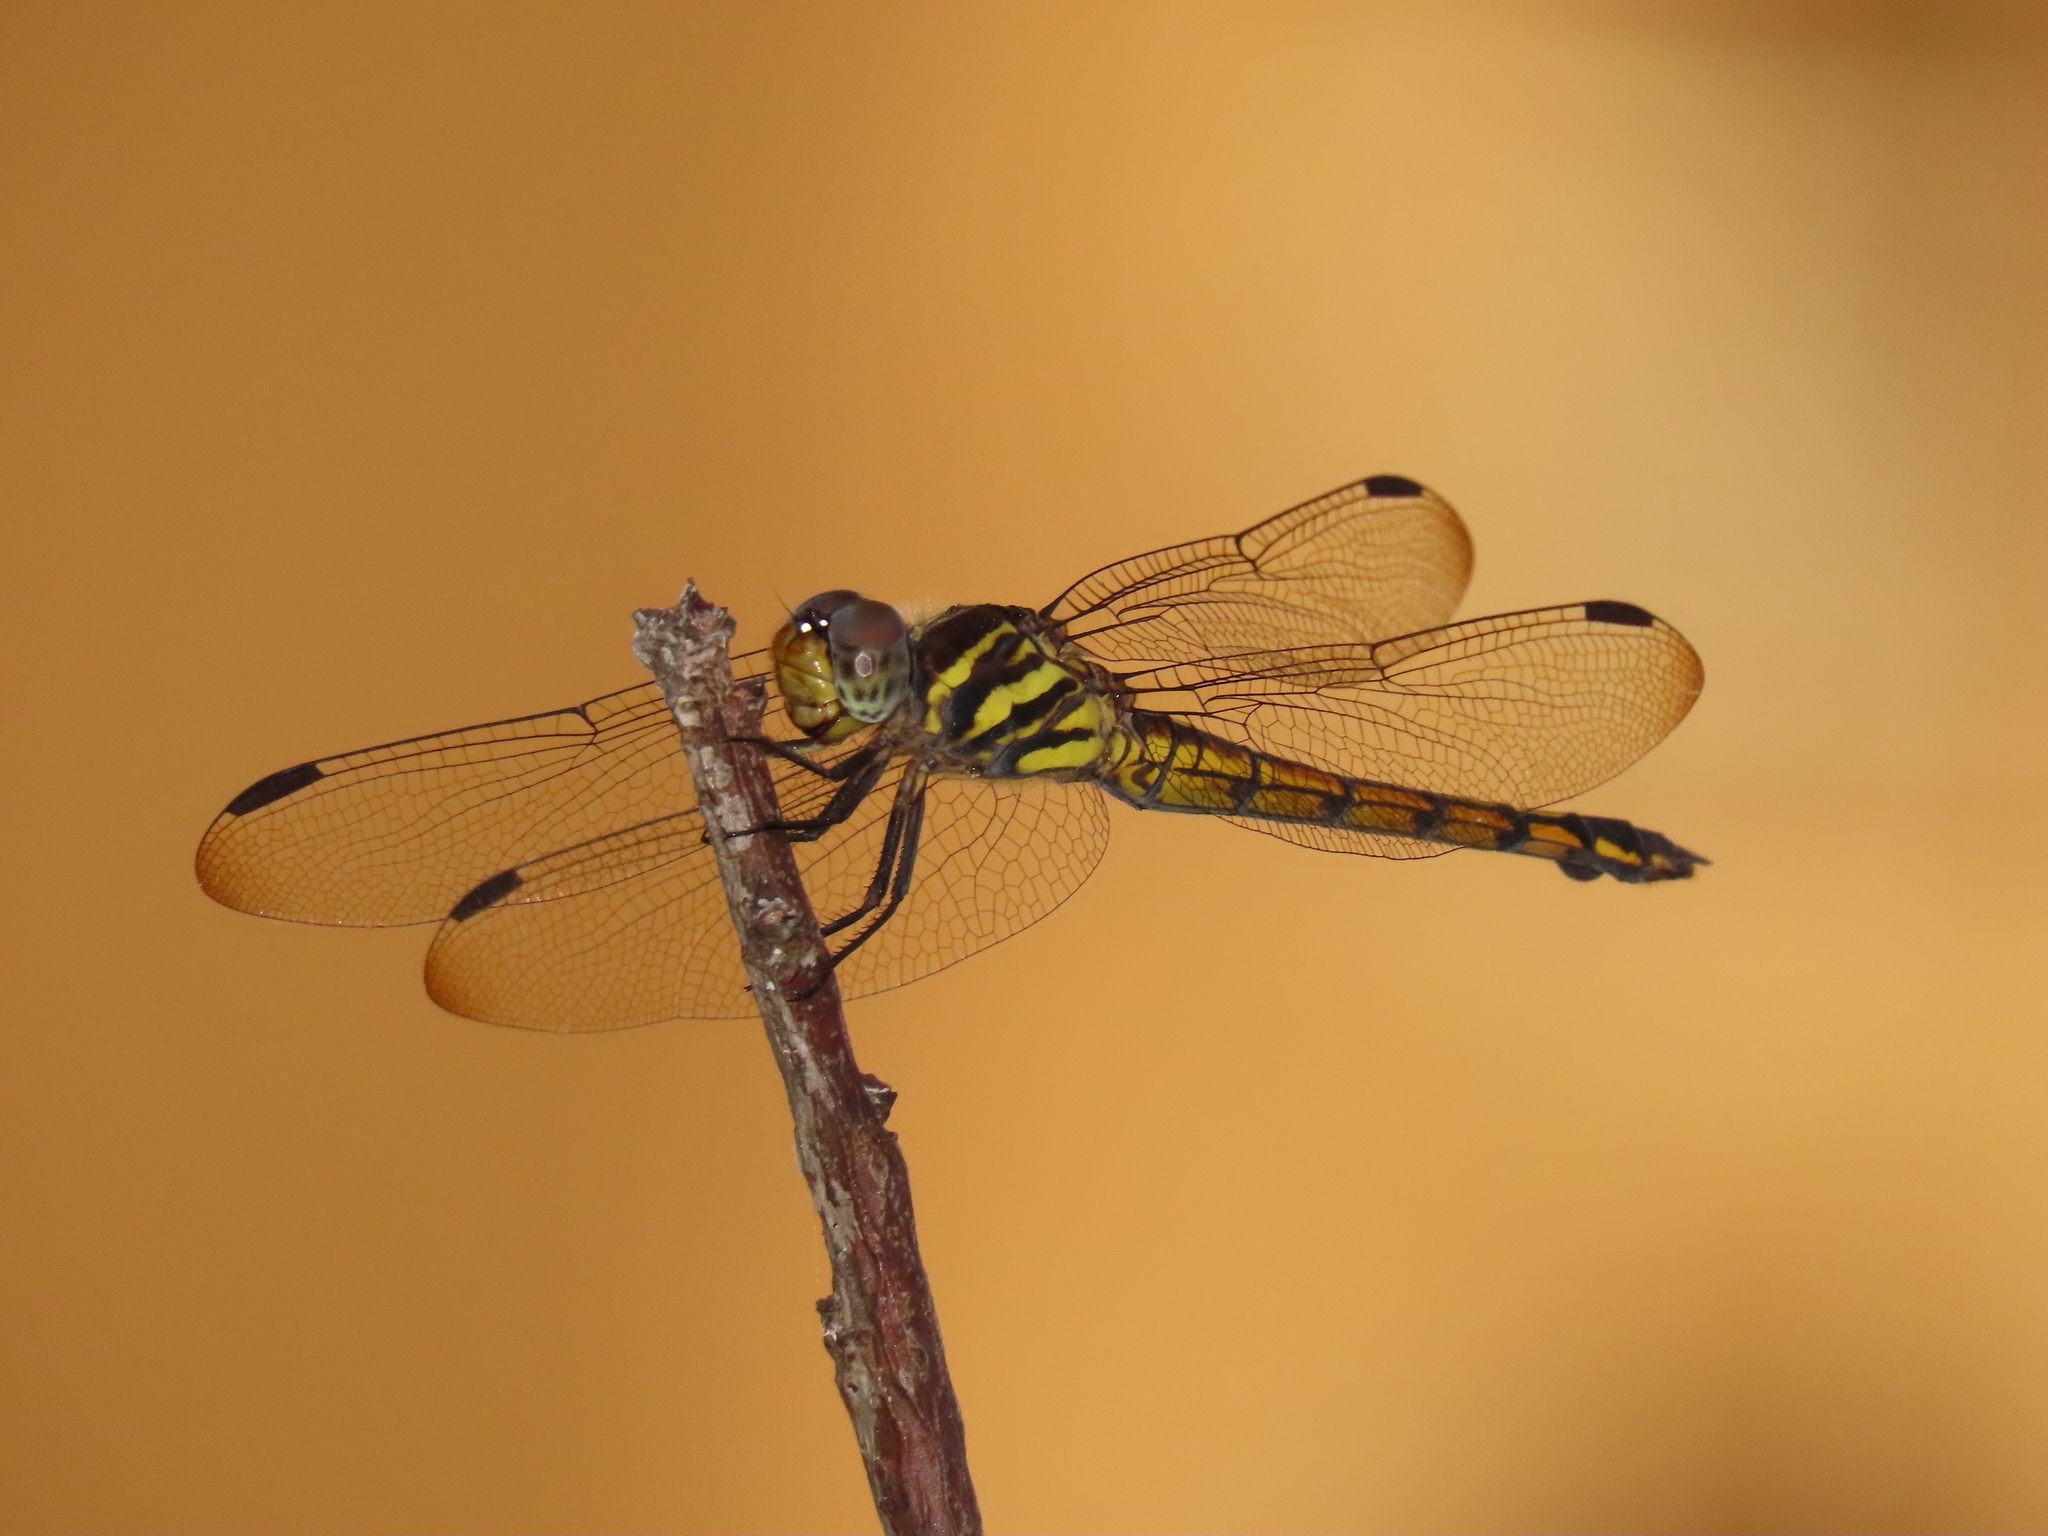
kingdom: Animalia
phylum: Arthropoda
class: Insecta
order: Odonata
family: Libellulidae
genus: Potamarcha
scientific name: Potamarcha congener
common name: Blue chaser
